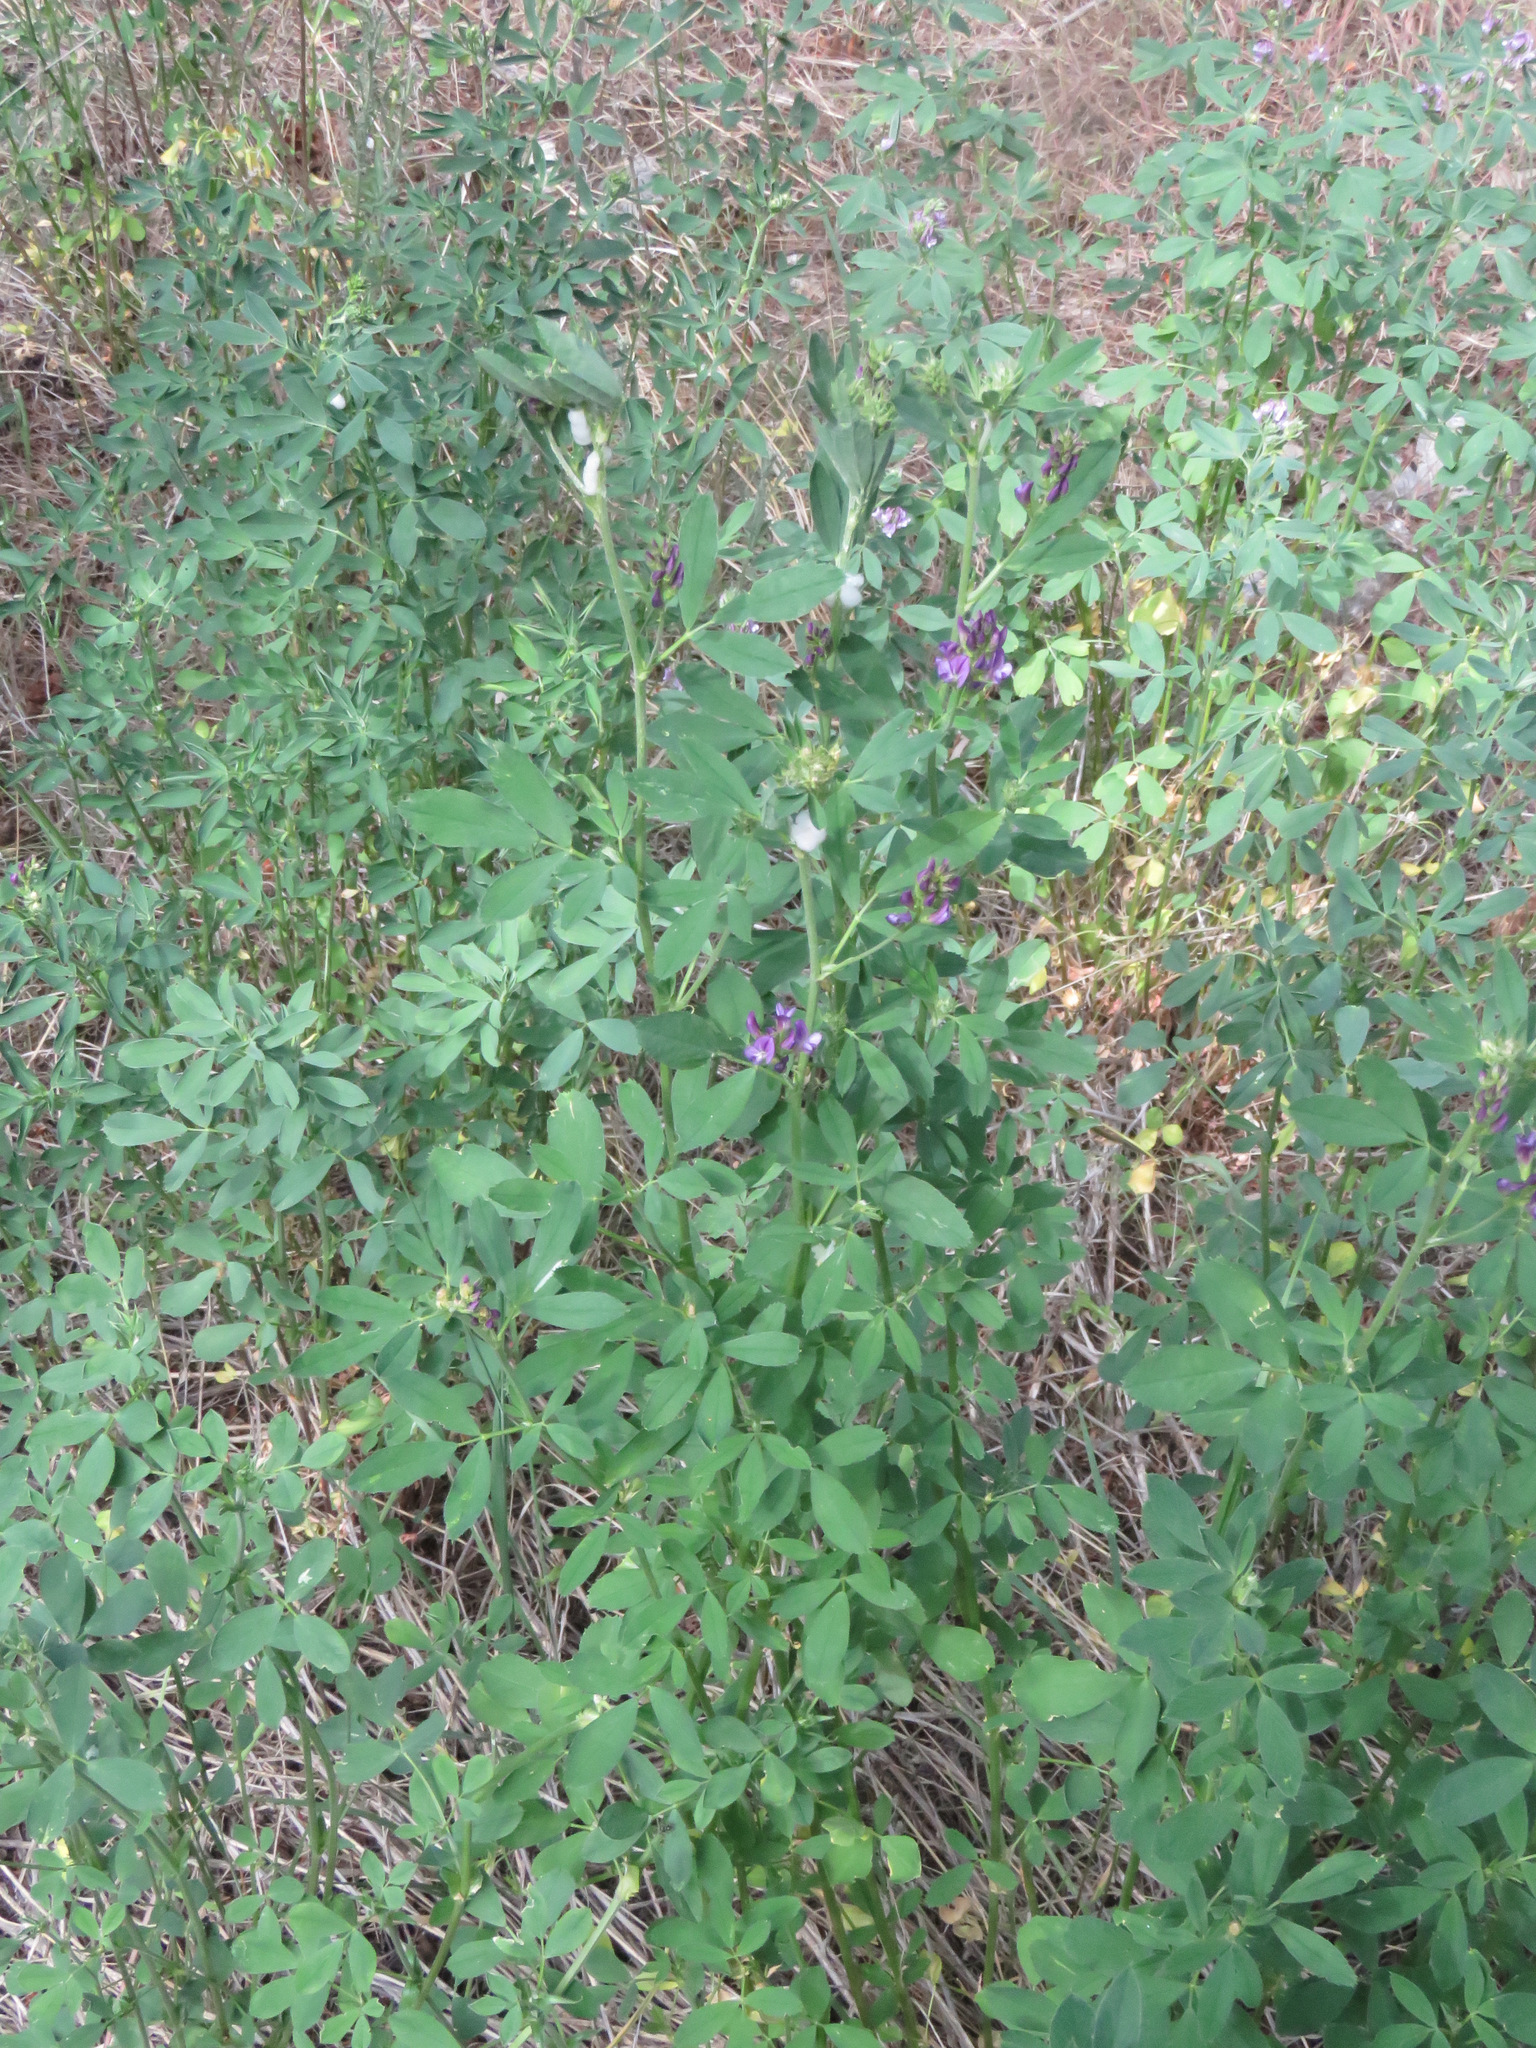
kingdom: Plantae
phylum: Tracheophyta
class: Magnoliopsida
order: Fabales
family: Fabaceae
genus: Medicago
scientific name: Medicago sativa
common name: Alfalfa
